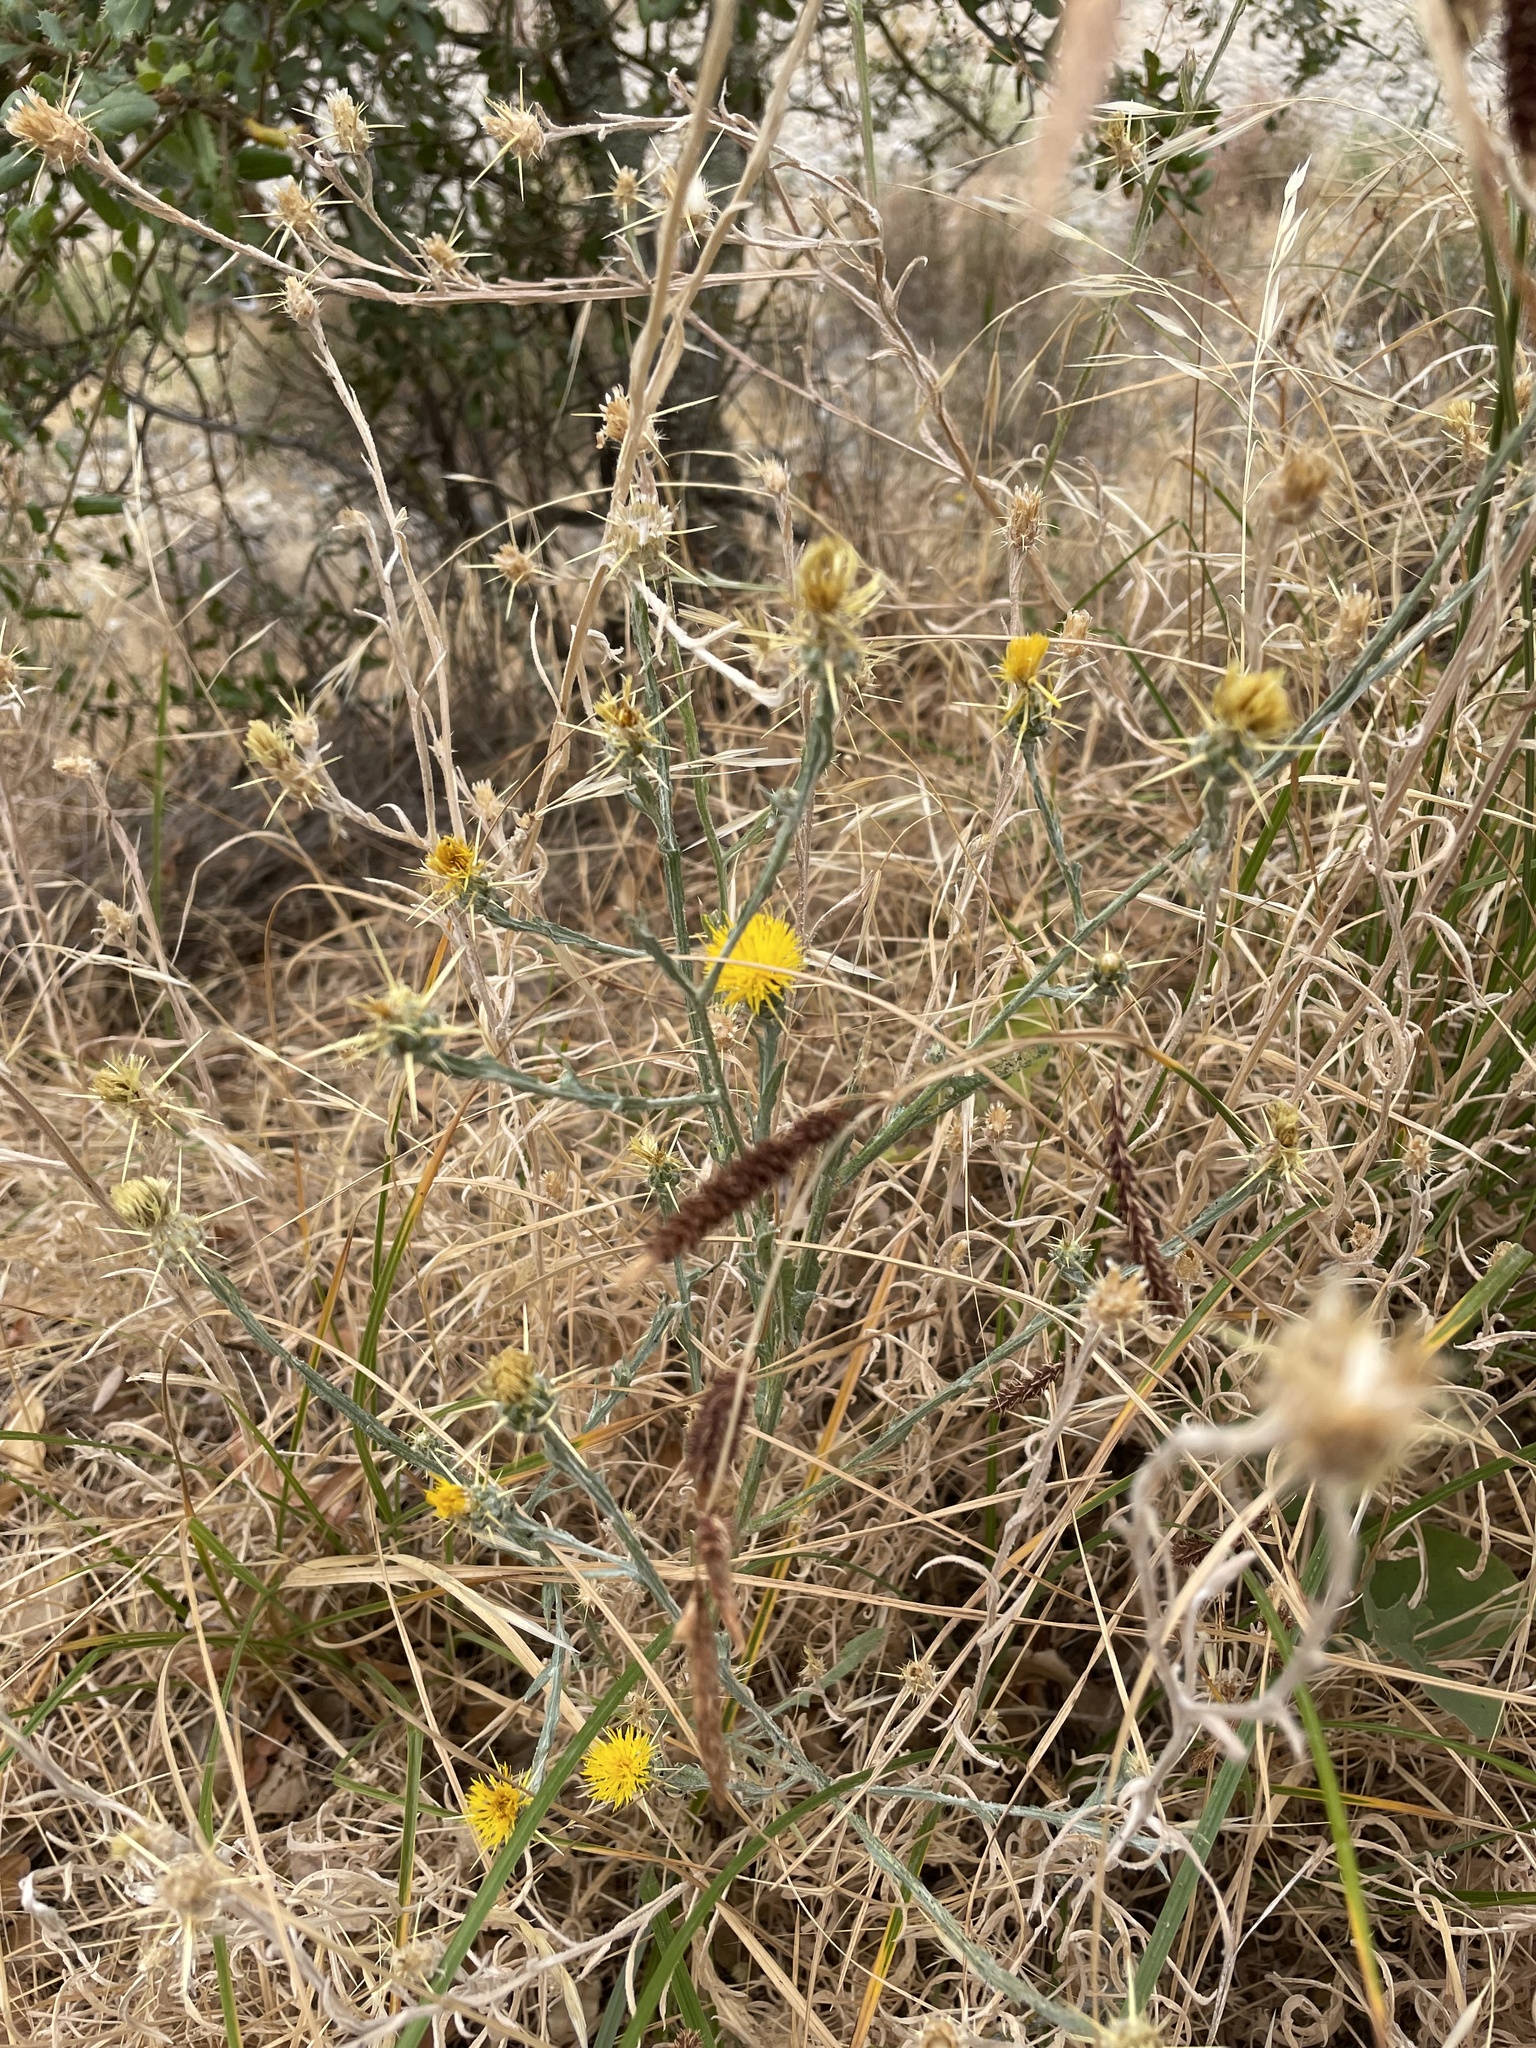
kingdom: Plantae
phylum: Tracheophyta
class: Magnoliopsida
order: Asterales
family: Asteraceae
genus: Centaurea
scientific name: Centaurea solstitialis
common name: Yellow star-thistle
